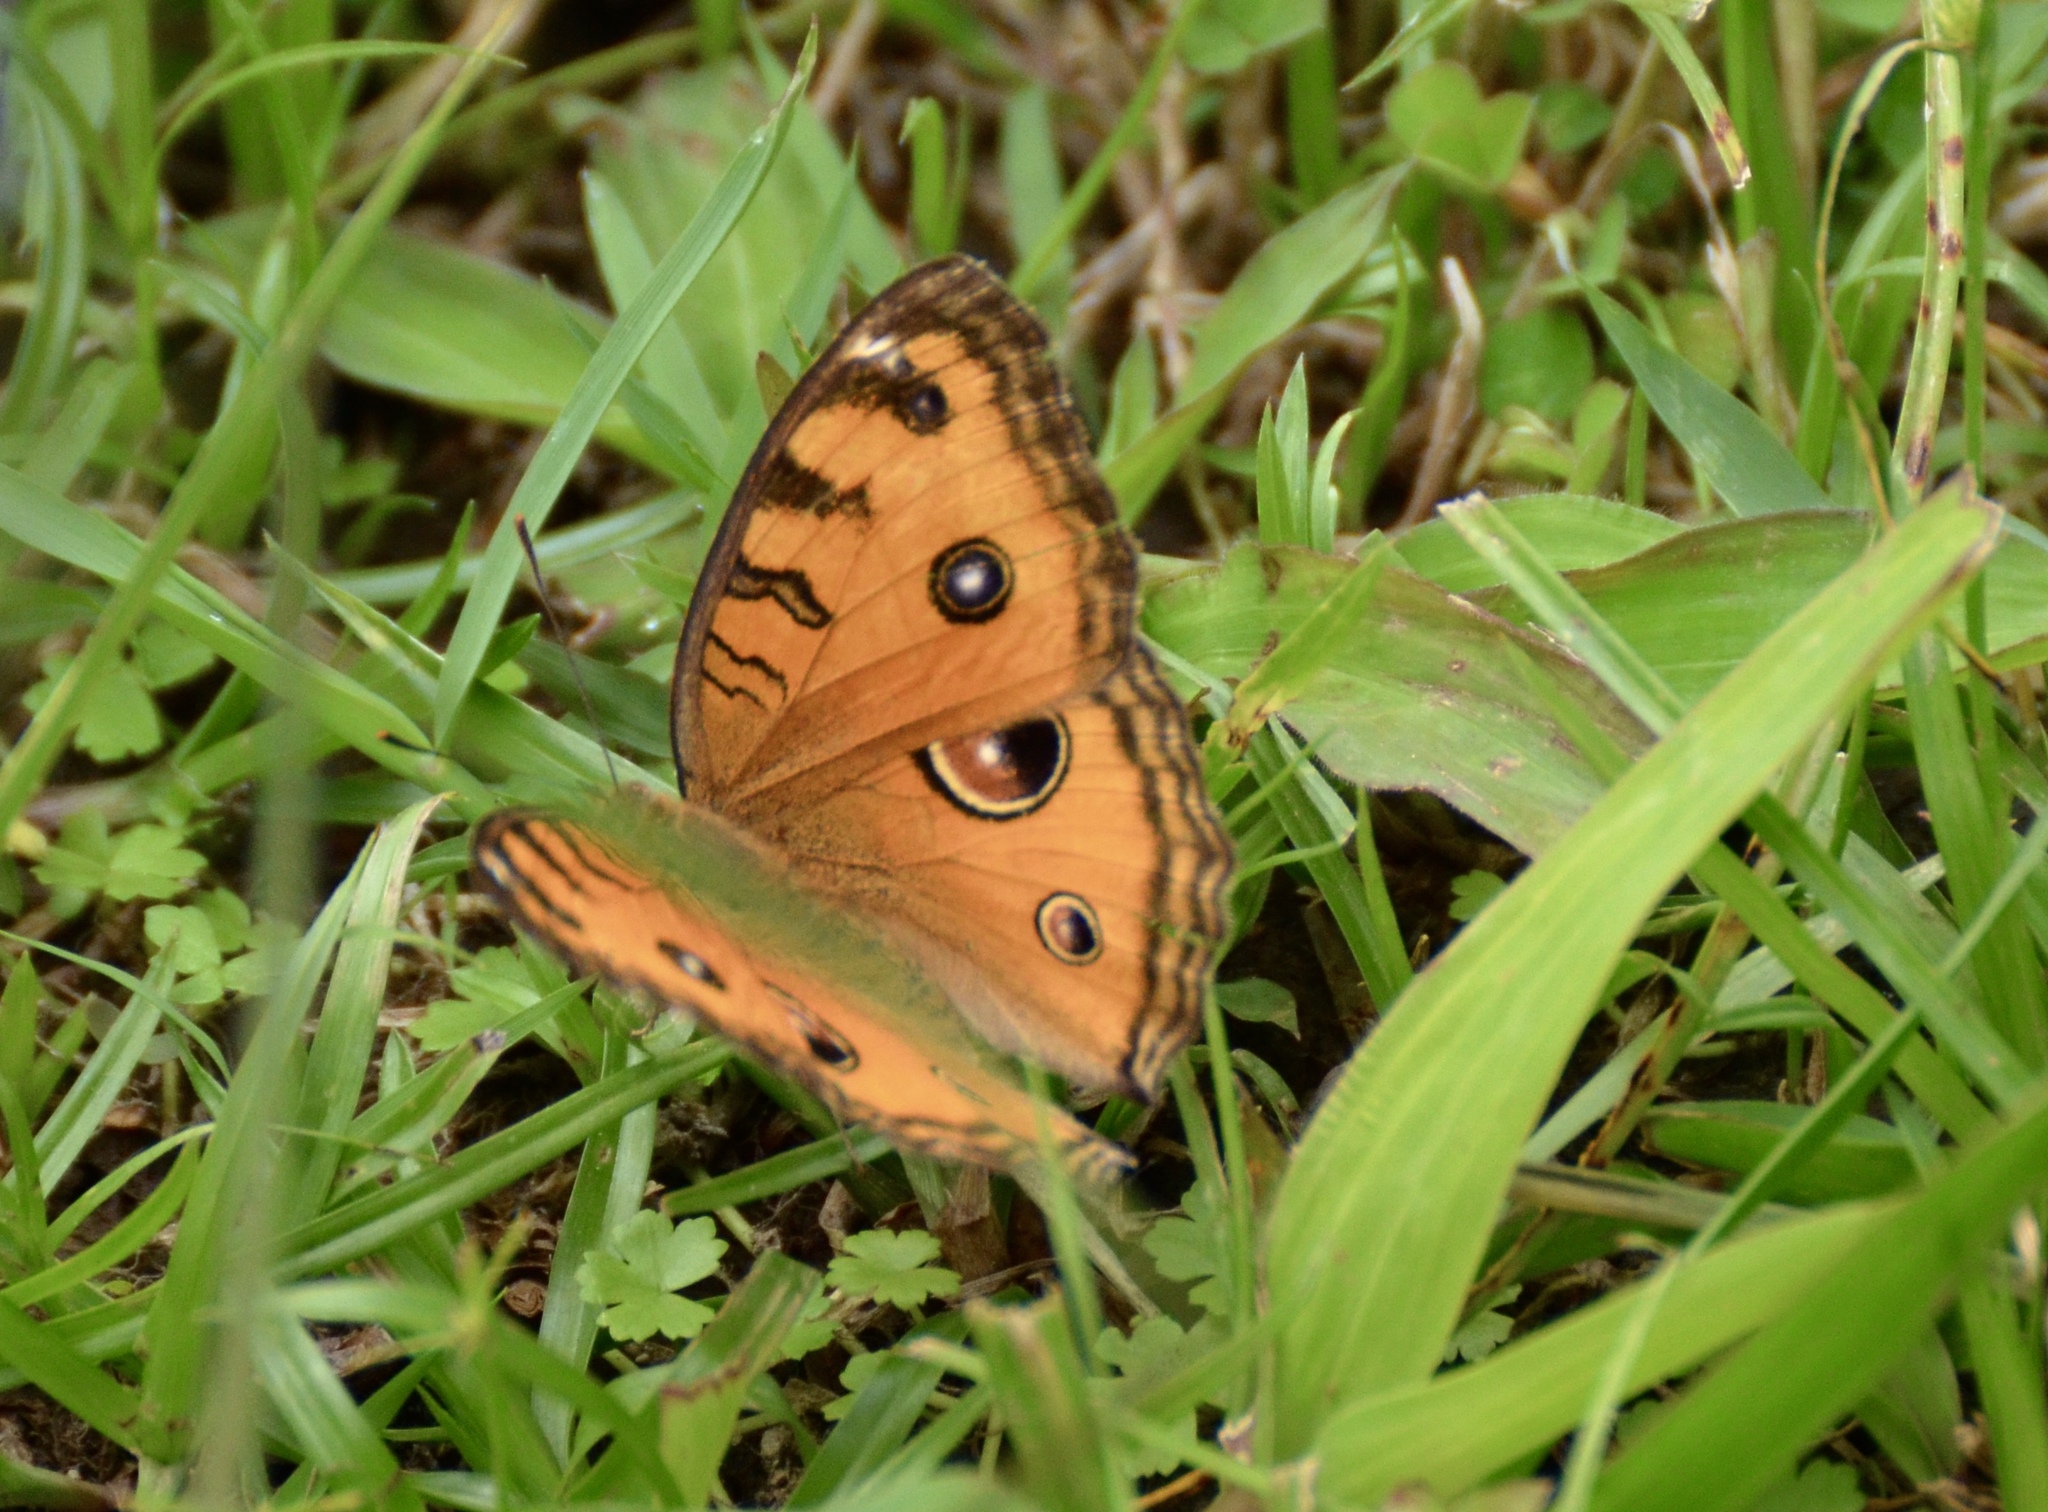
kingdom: Animalia
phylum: Arthropoda
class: Insecta
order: Lepidoptera
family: Nymphalidae
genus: Junonia
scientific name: Junonia almana
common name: Peacock pansy
